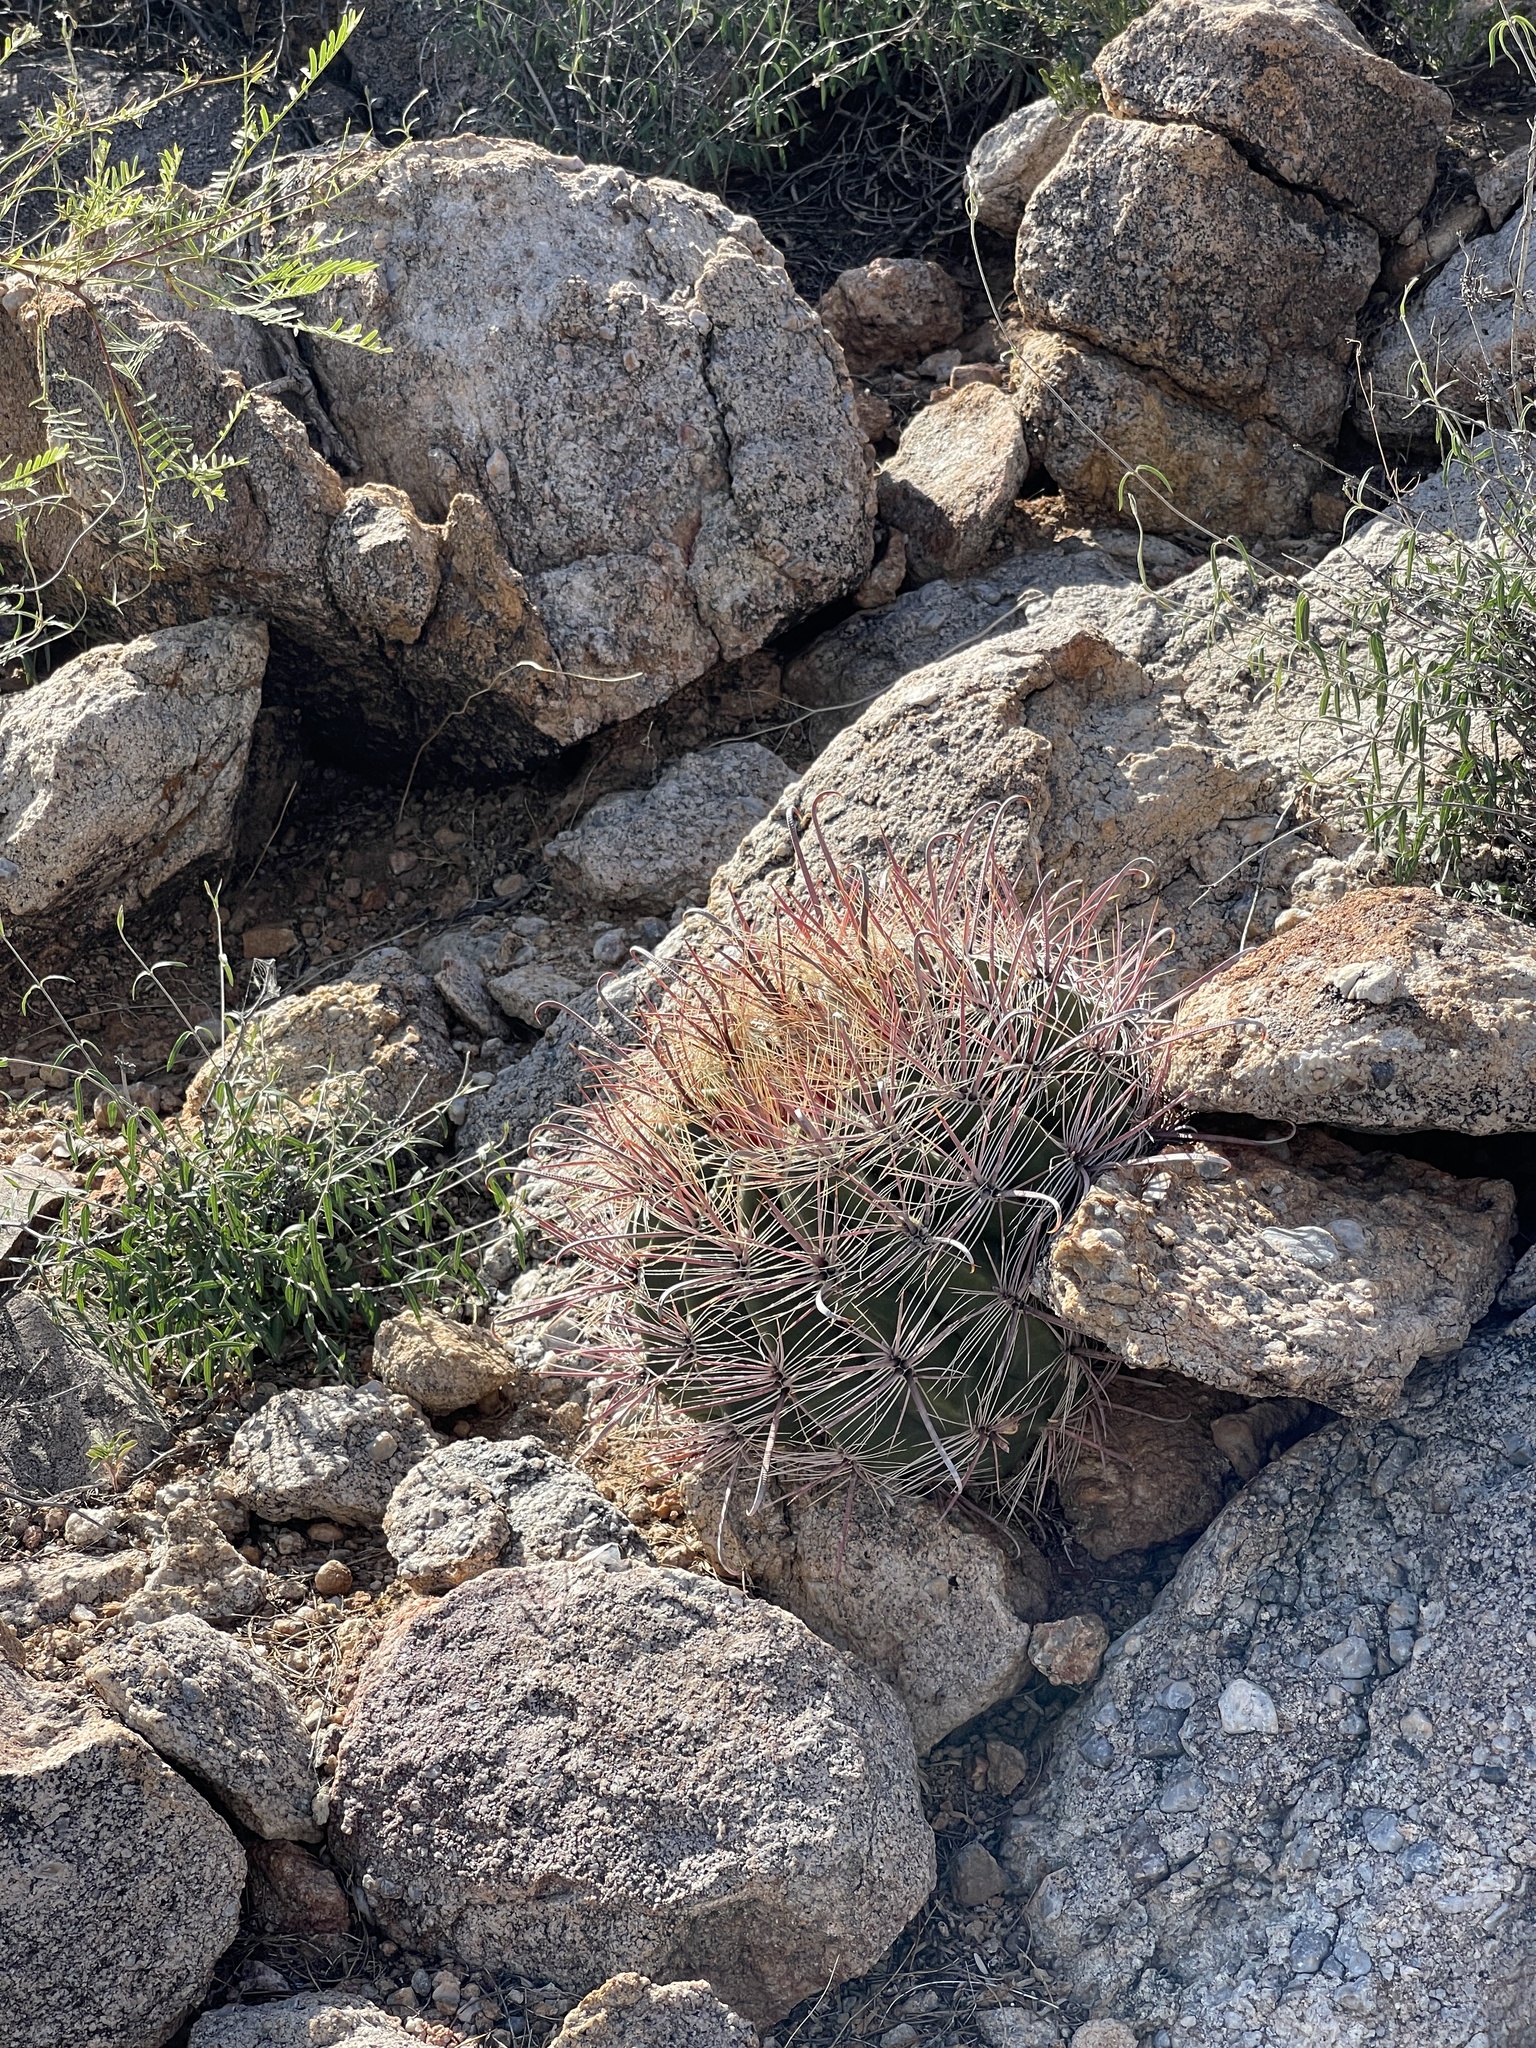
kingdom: Plantae
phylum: Tracheophyta
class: Magnoliopsida
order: Caryophyllales
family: Cactaceae
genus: Ferocactus
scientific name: Ferocactus wislizeni
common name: Candy barrel cactus
